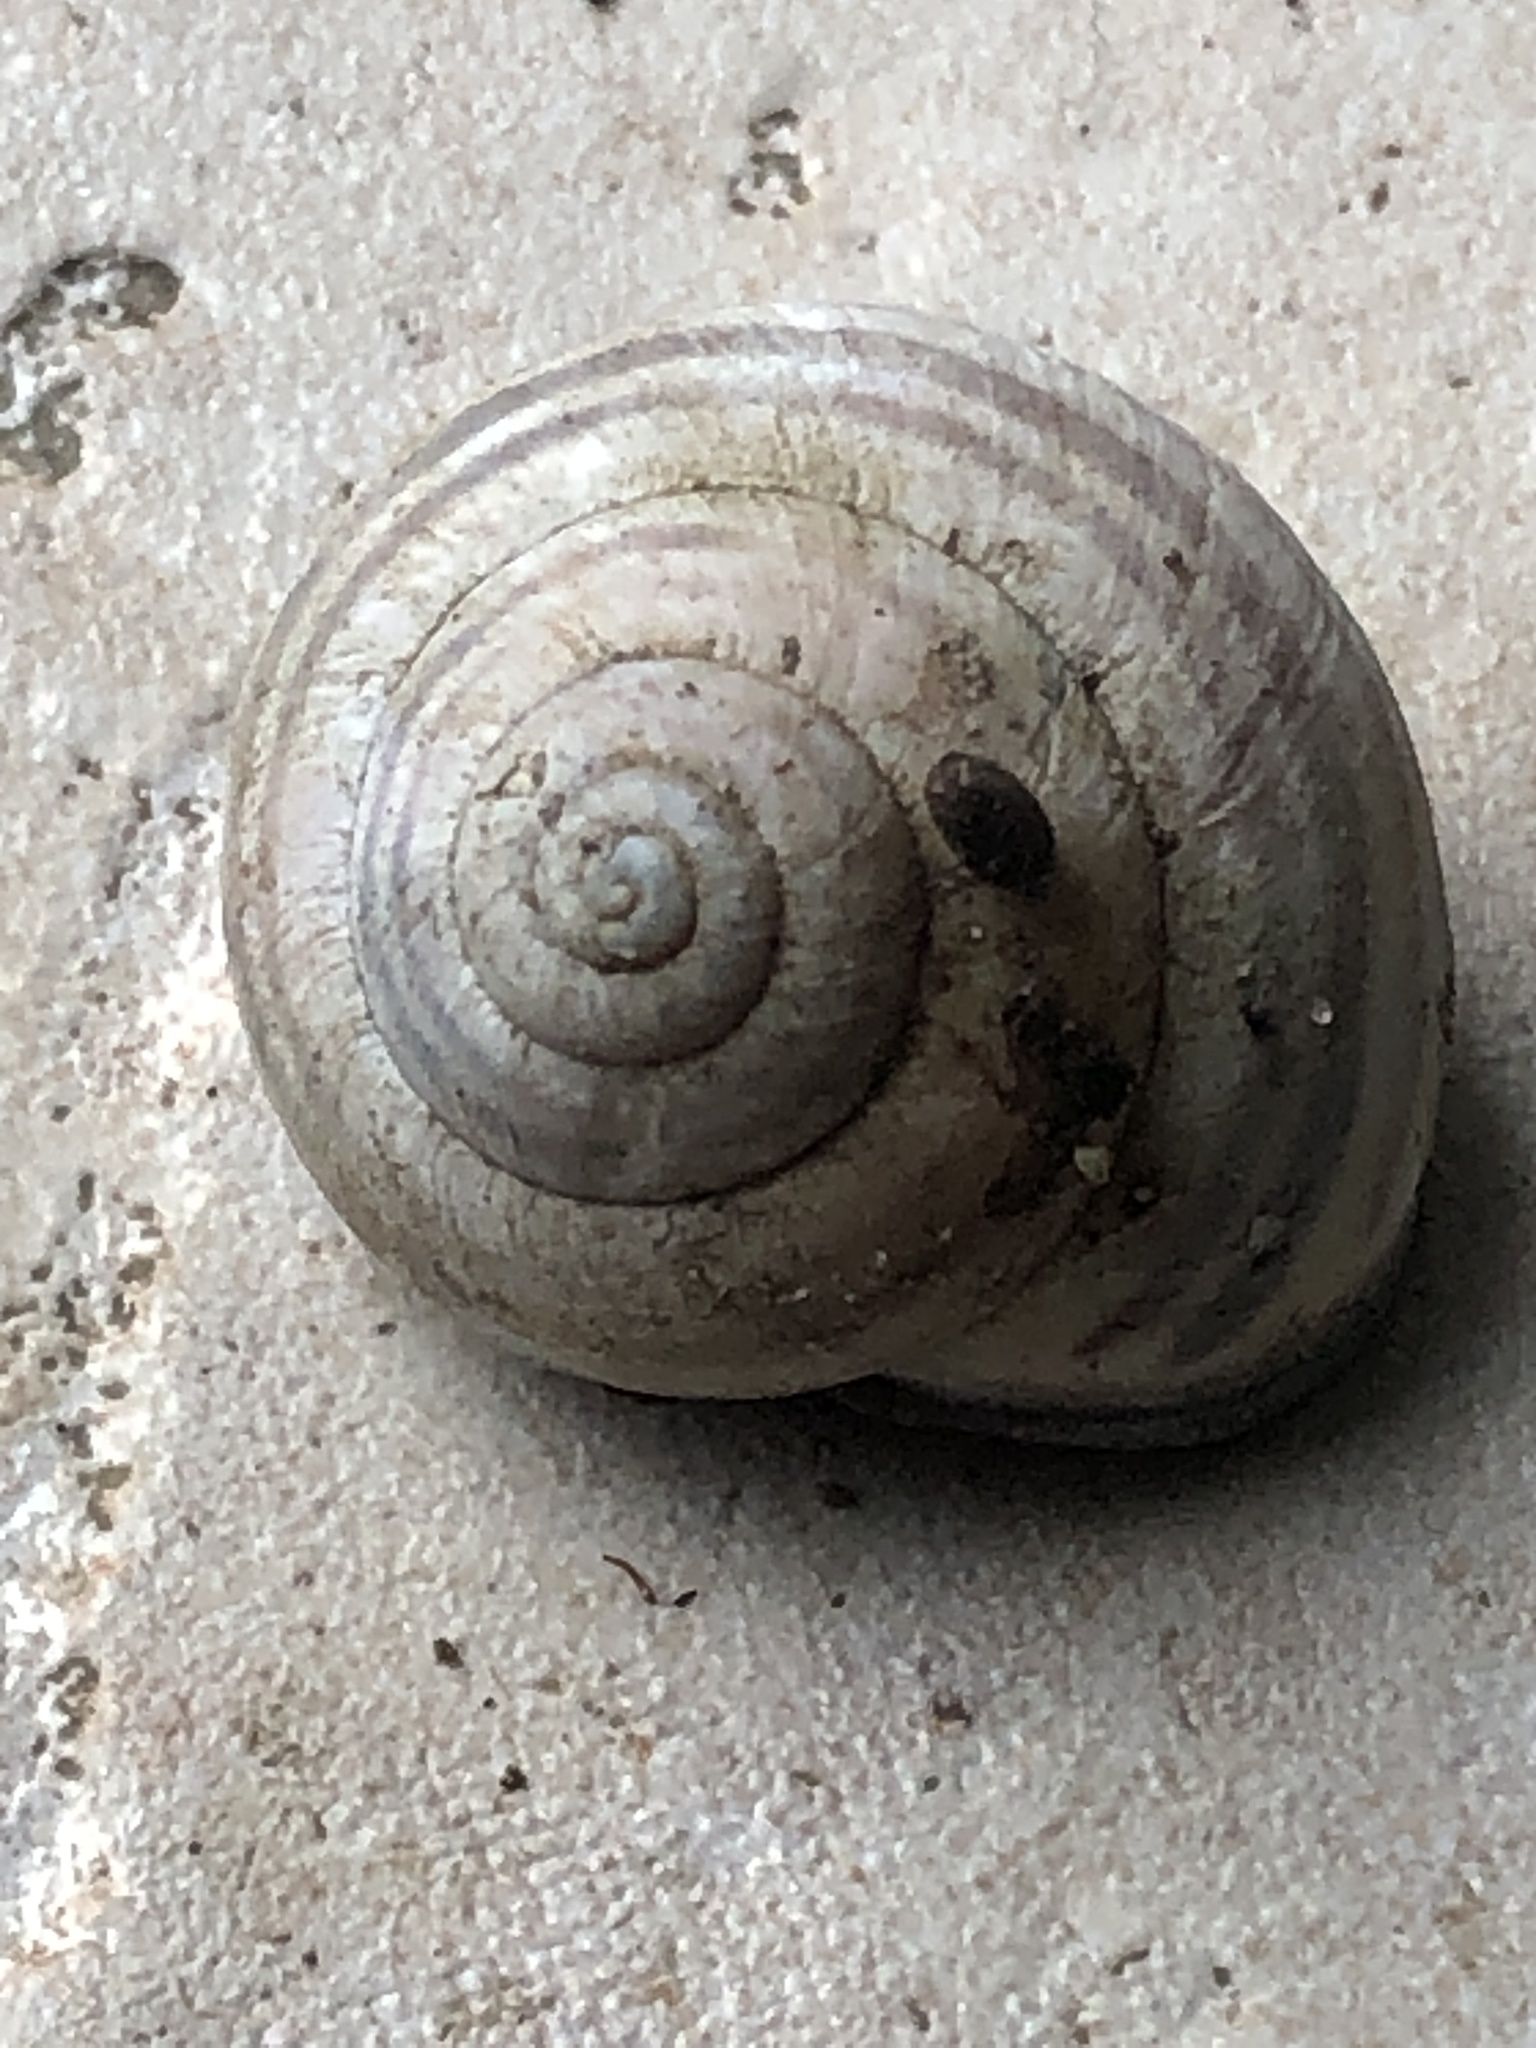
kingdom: Animalia
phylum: Mollusca
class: Gastropoda
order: Stylommatophora
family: Helicidae
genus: Cepaea
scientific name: Cepaea nemoralis
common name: Grovesnail
